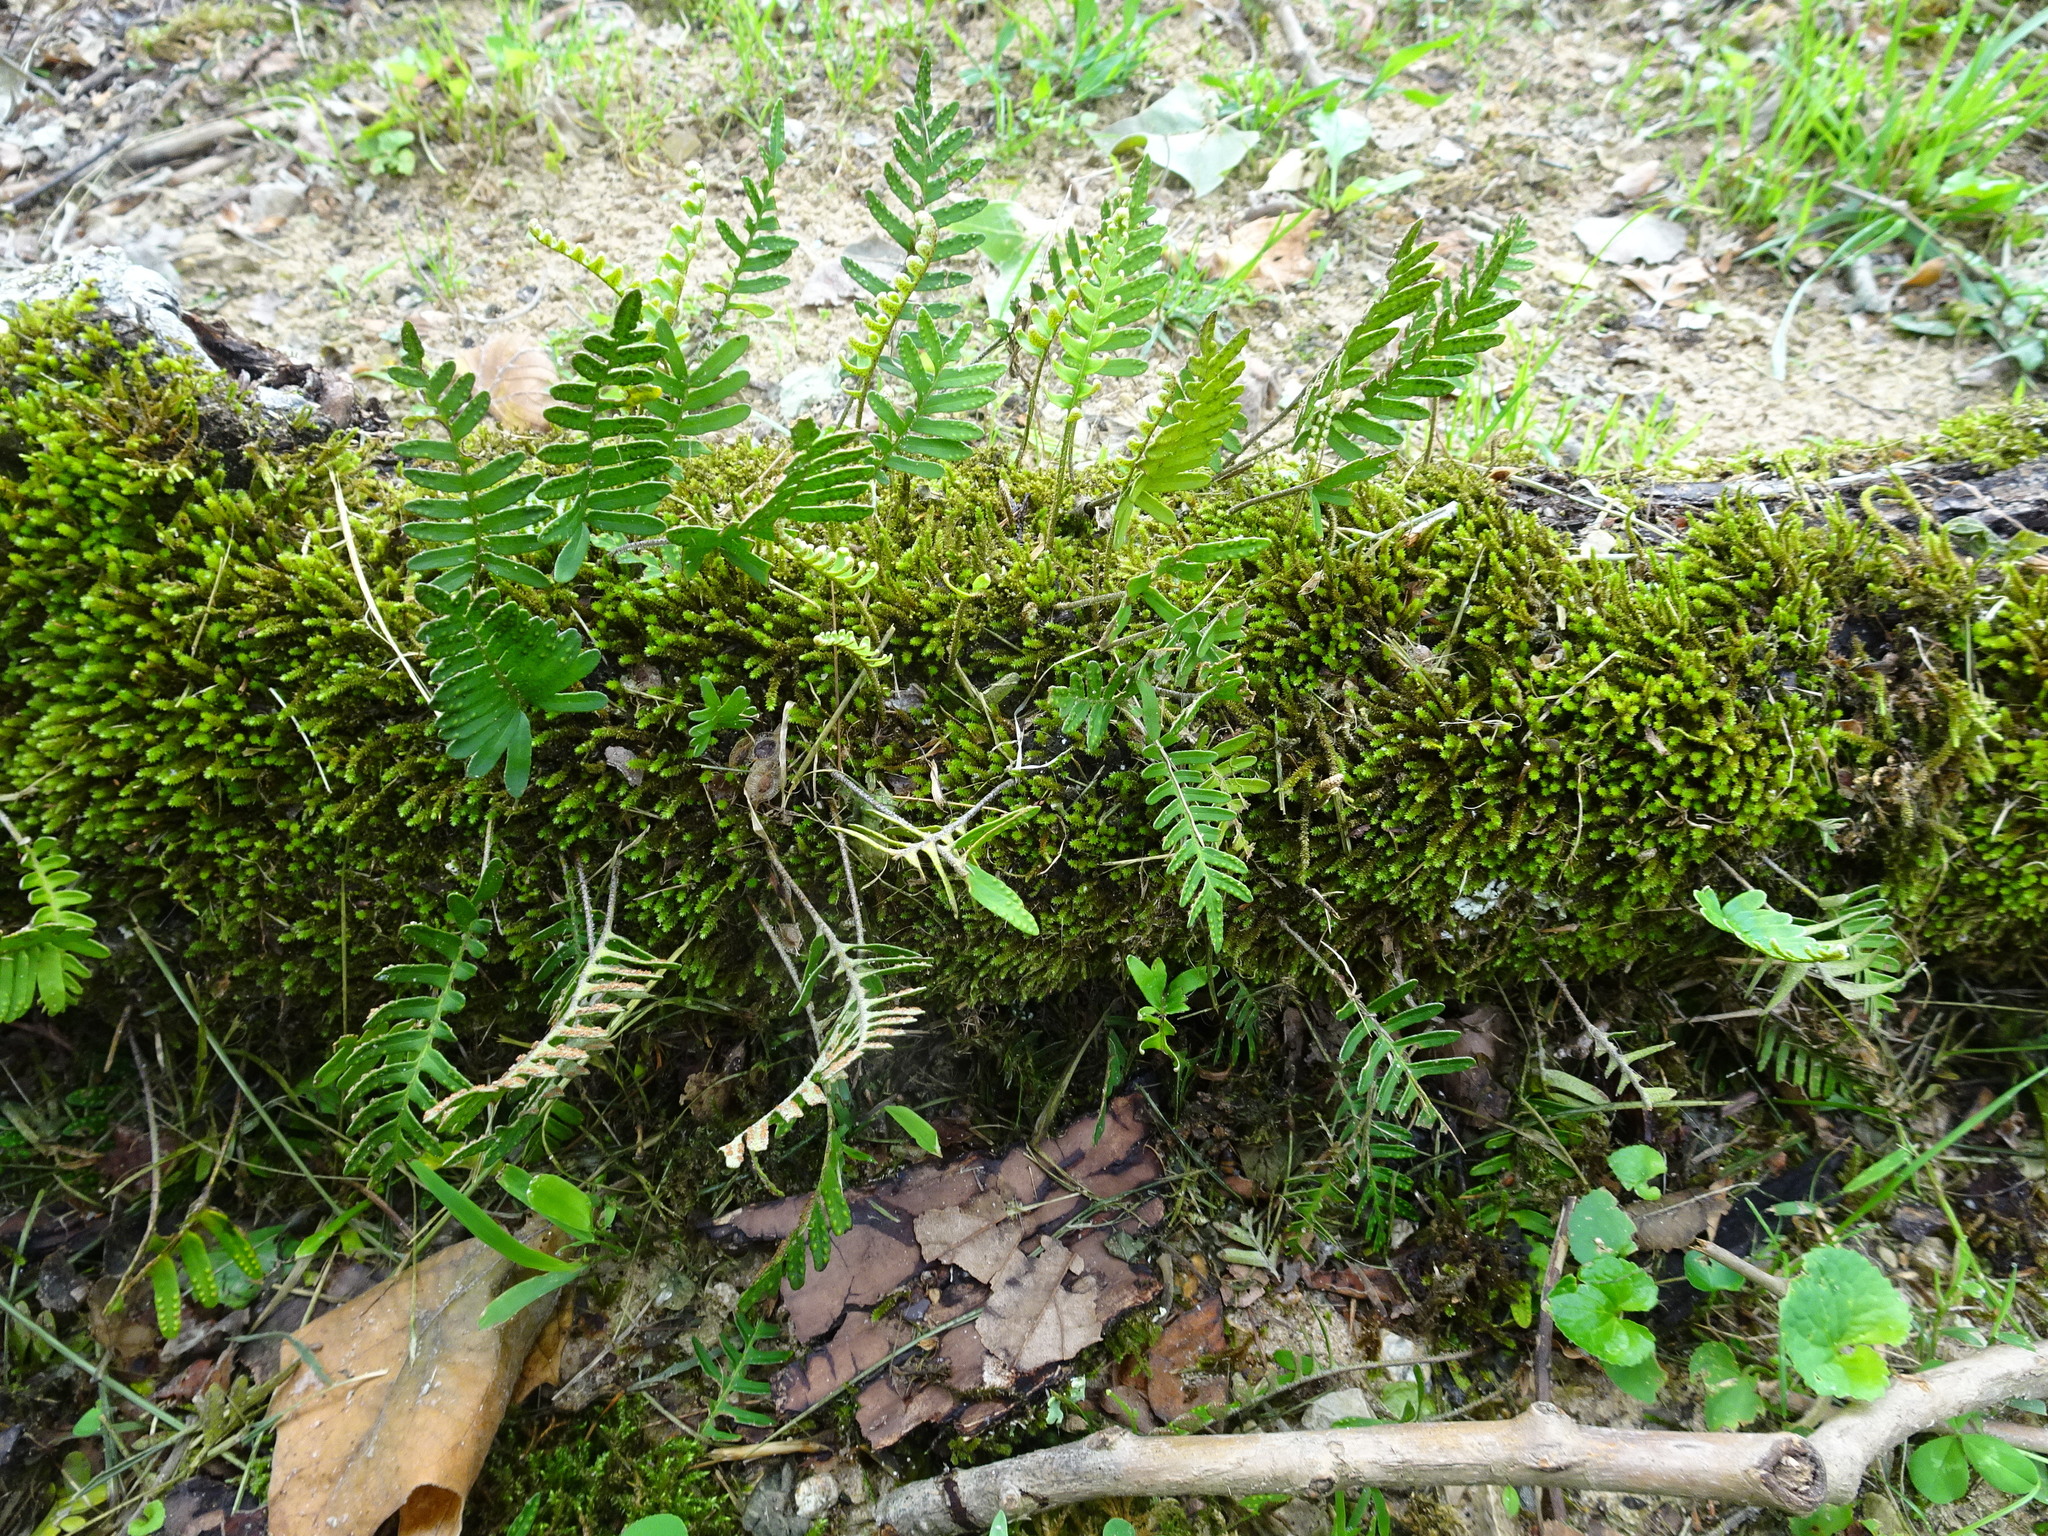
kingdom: Plantae
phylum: Tracheophyta
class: Polypodiopsida
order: Polypodiales
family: Polypodiaceae
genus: Pleopeltis
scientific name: Pleopeltis michauxiana
